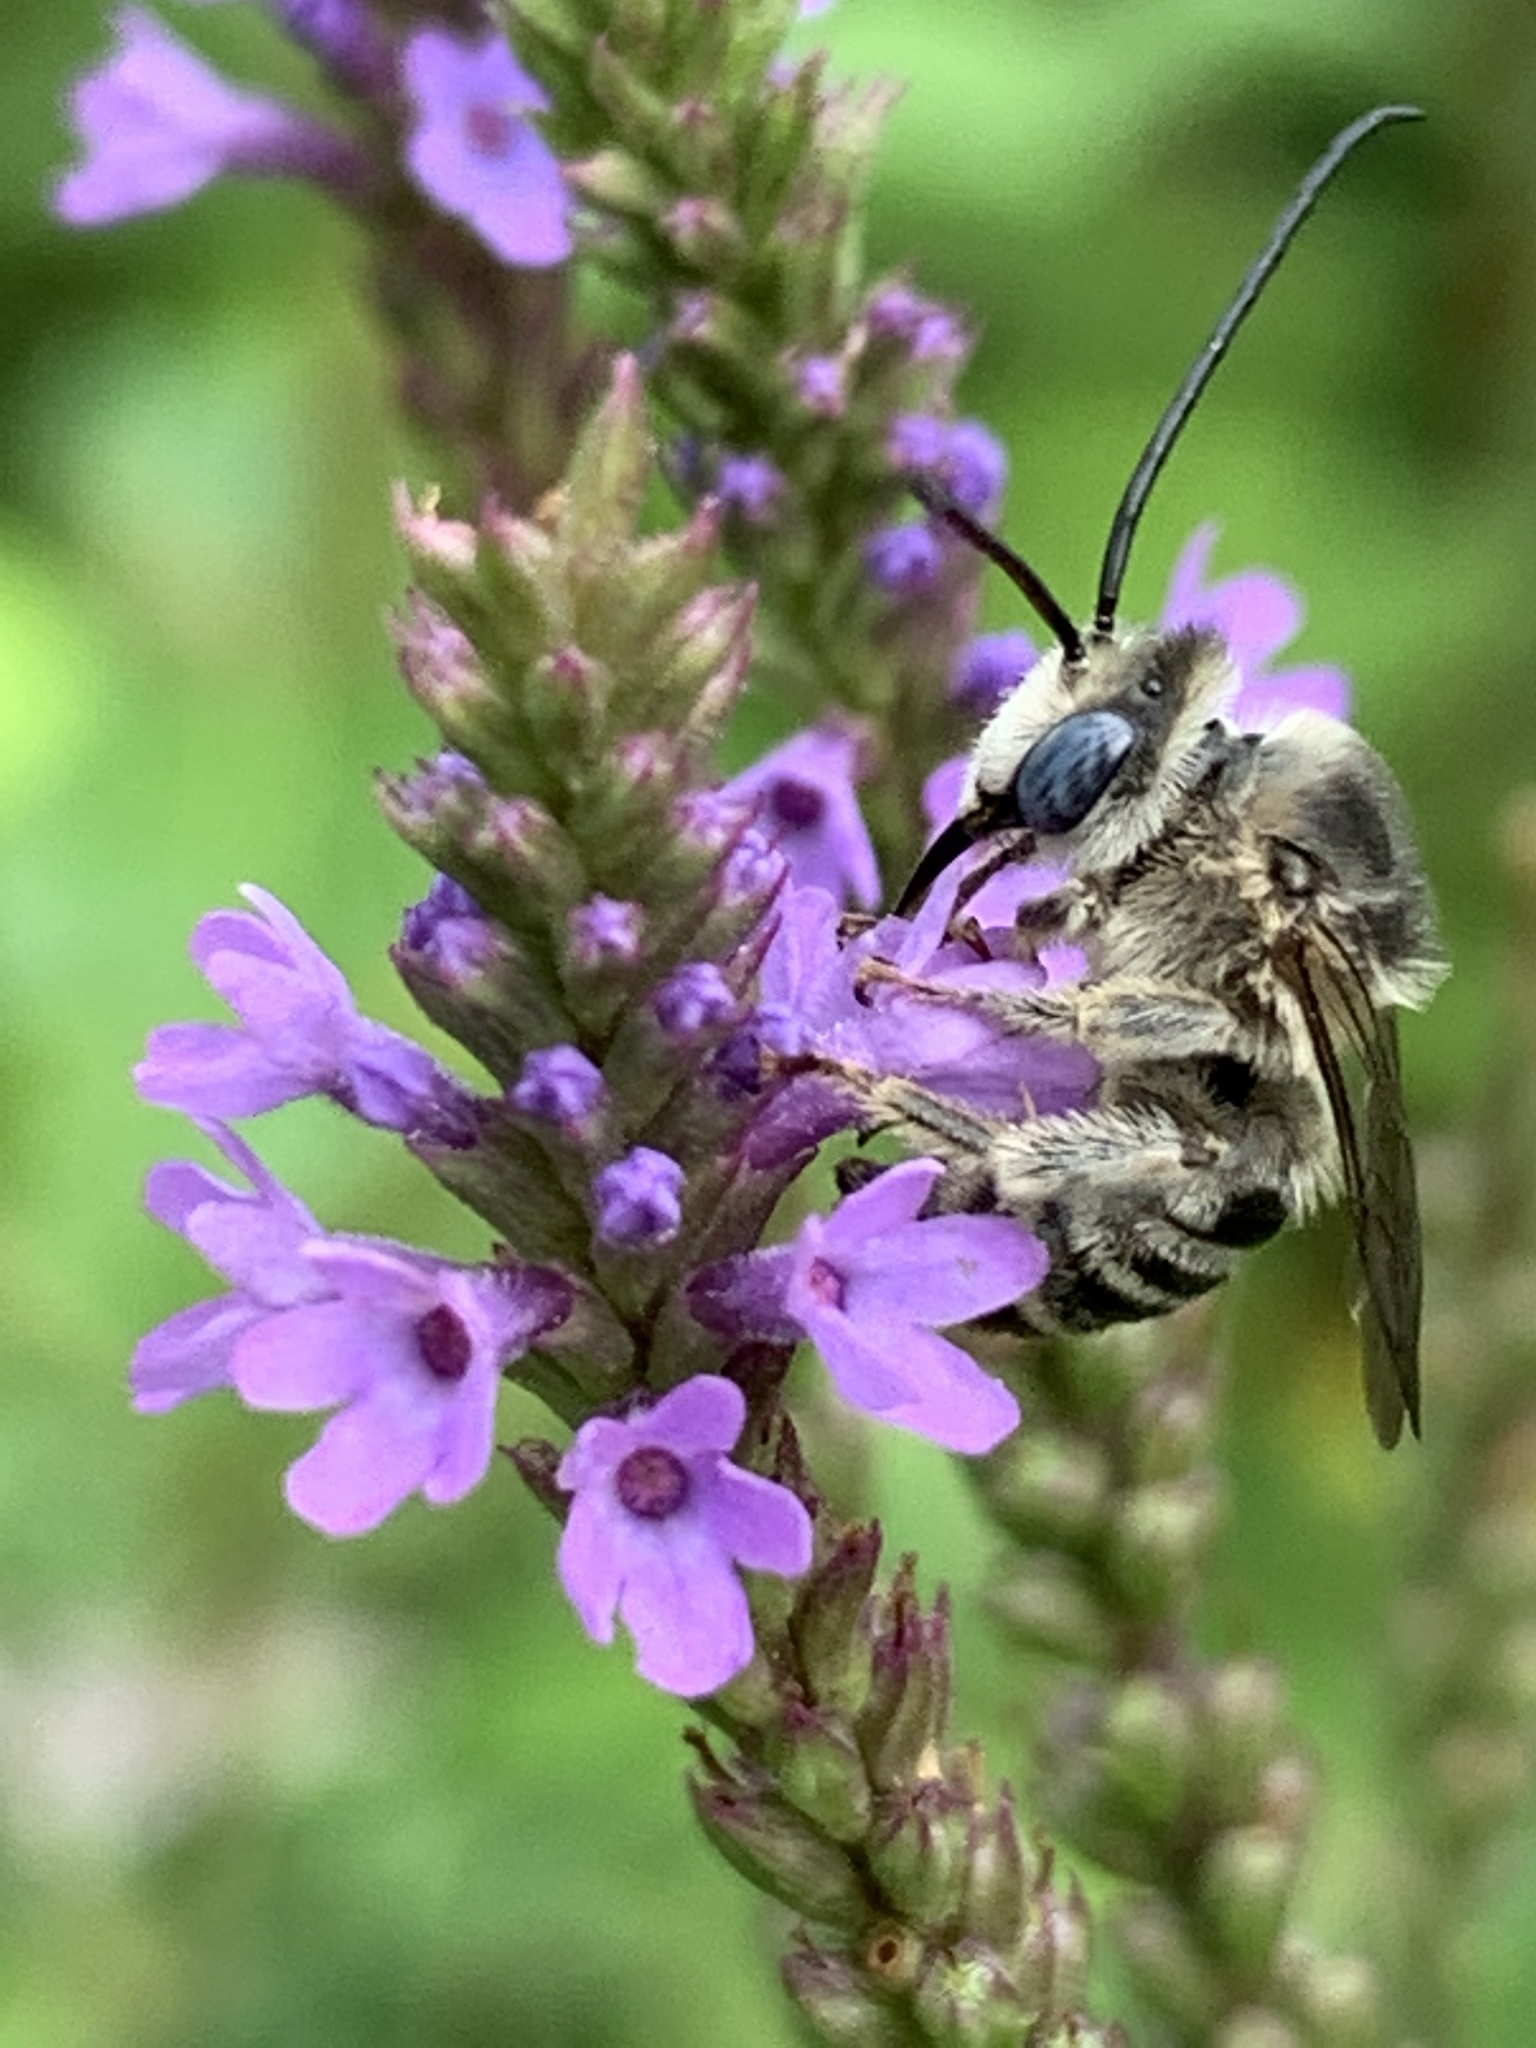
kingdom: Animalia
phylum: Arthropoda
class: Insecta
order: Hymenoptera
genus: Eumelissodes
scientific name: Eumelissodes
